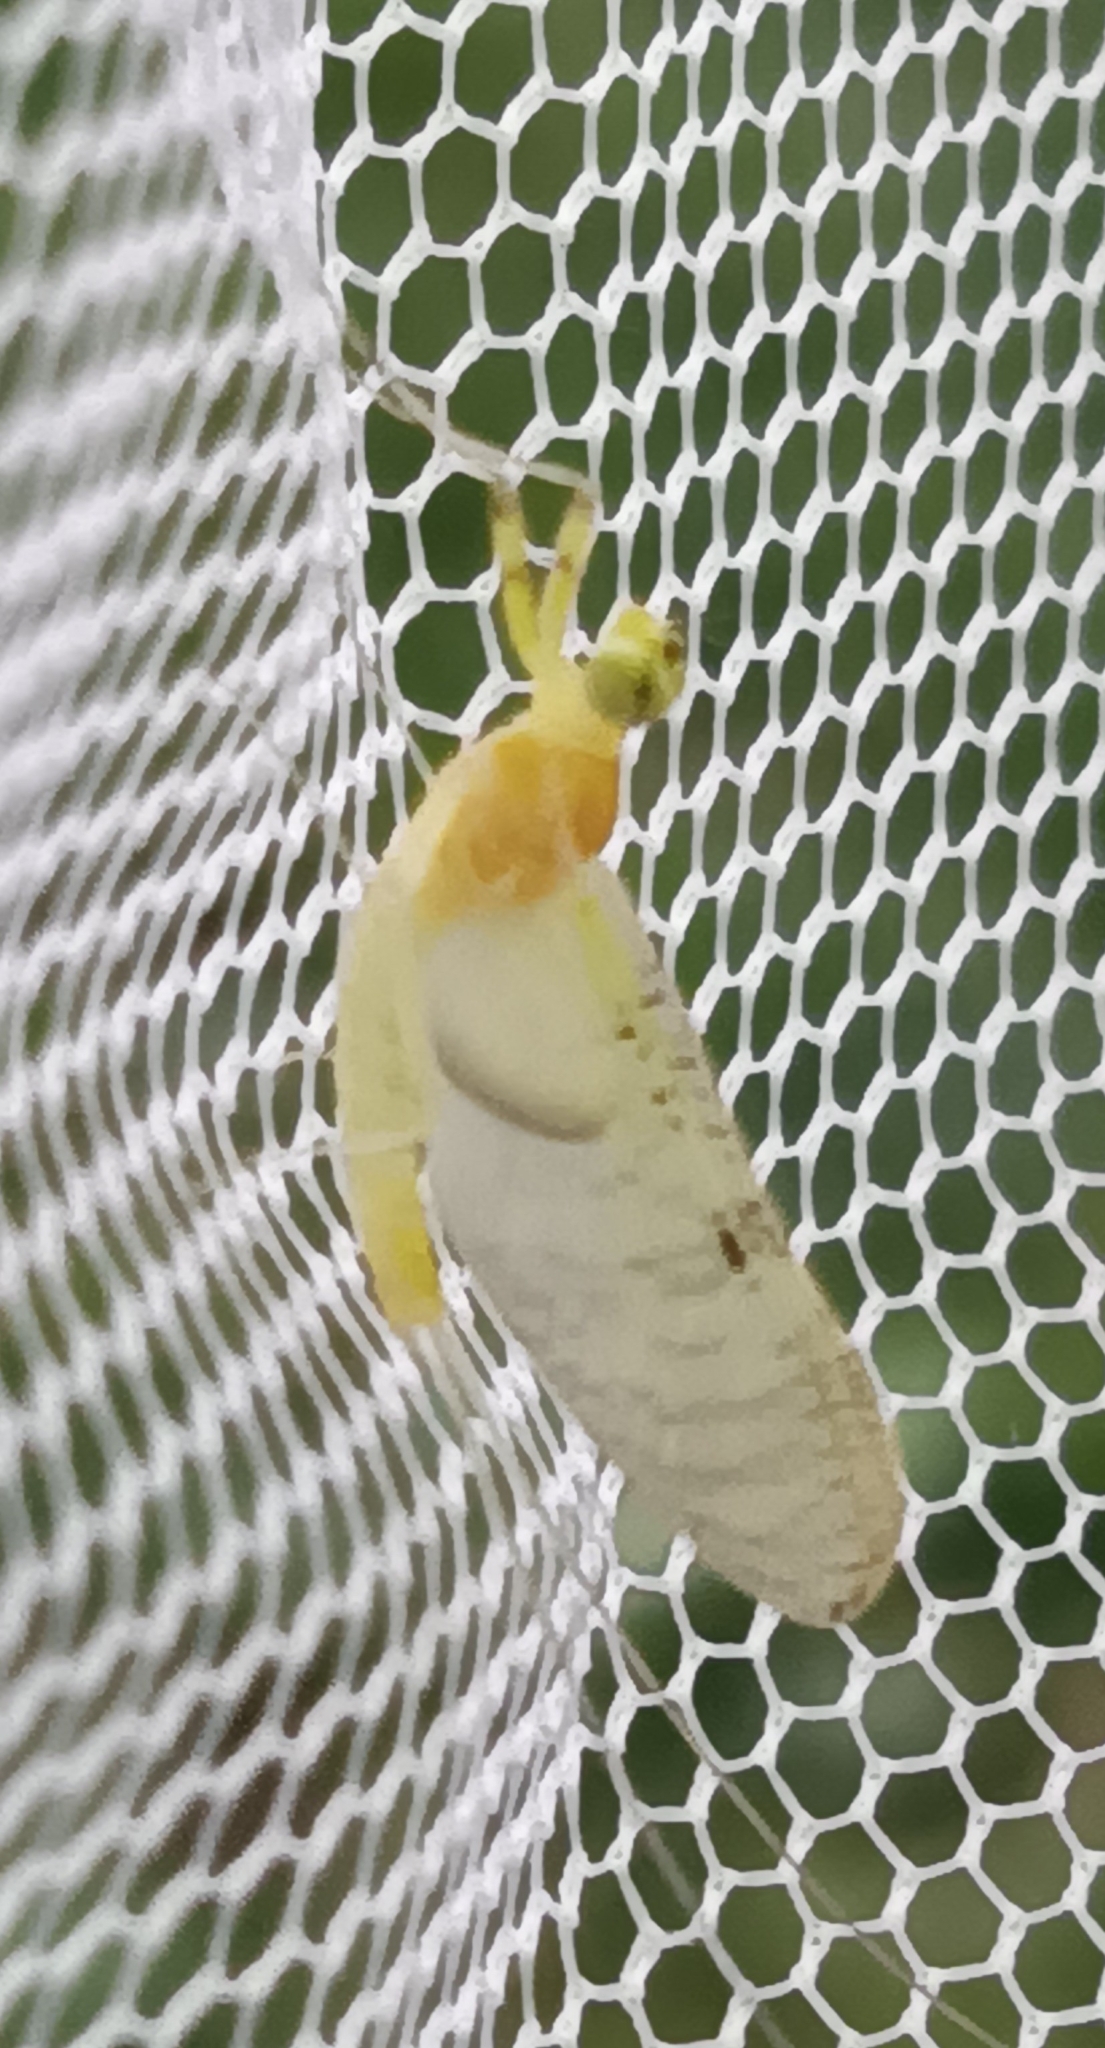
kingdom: Animalia
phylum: Arthropoda
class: Insecta
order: Ephemeroptera
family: Heptageniidae
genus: Stenacron
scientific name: Stenacron interpunctatum
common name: Orange cahill
